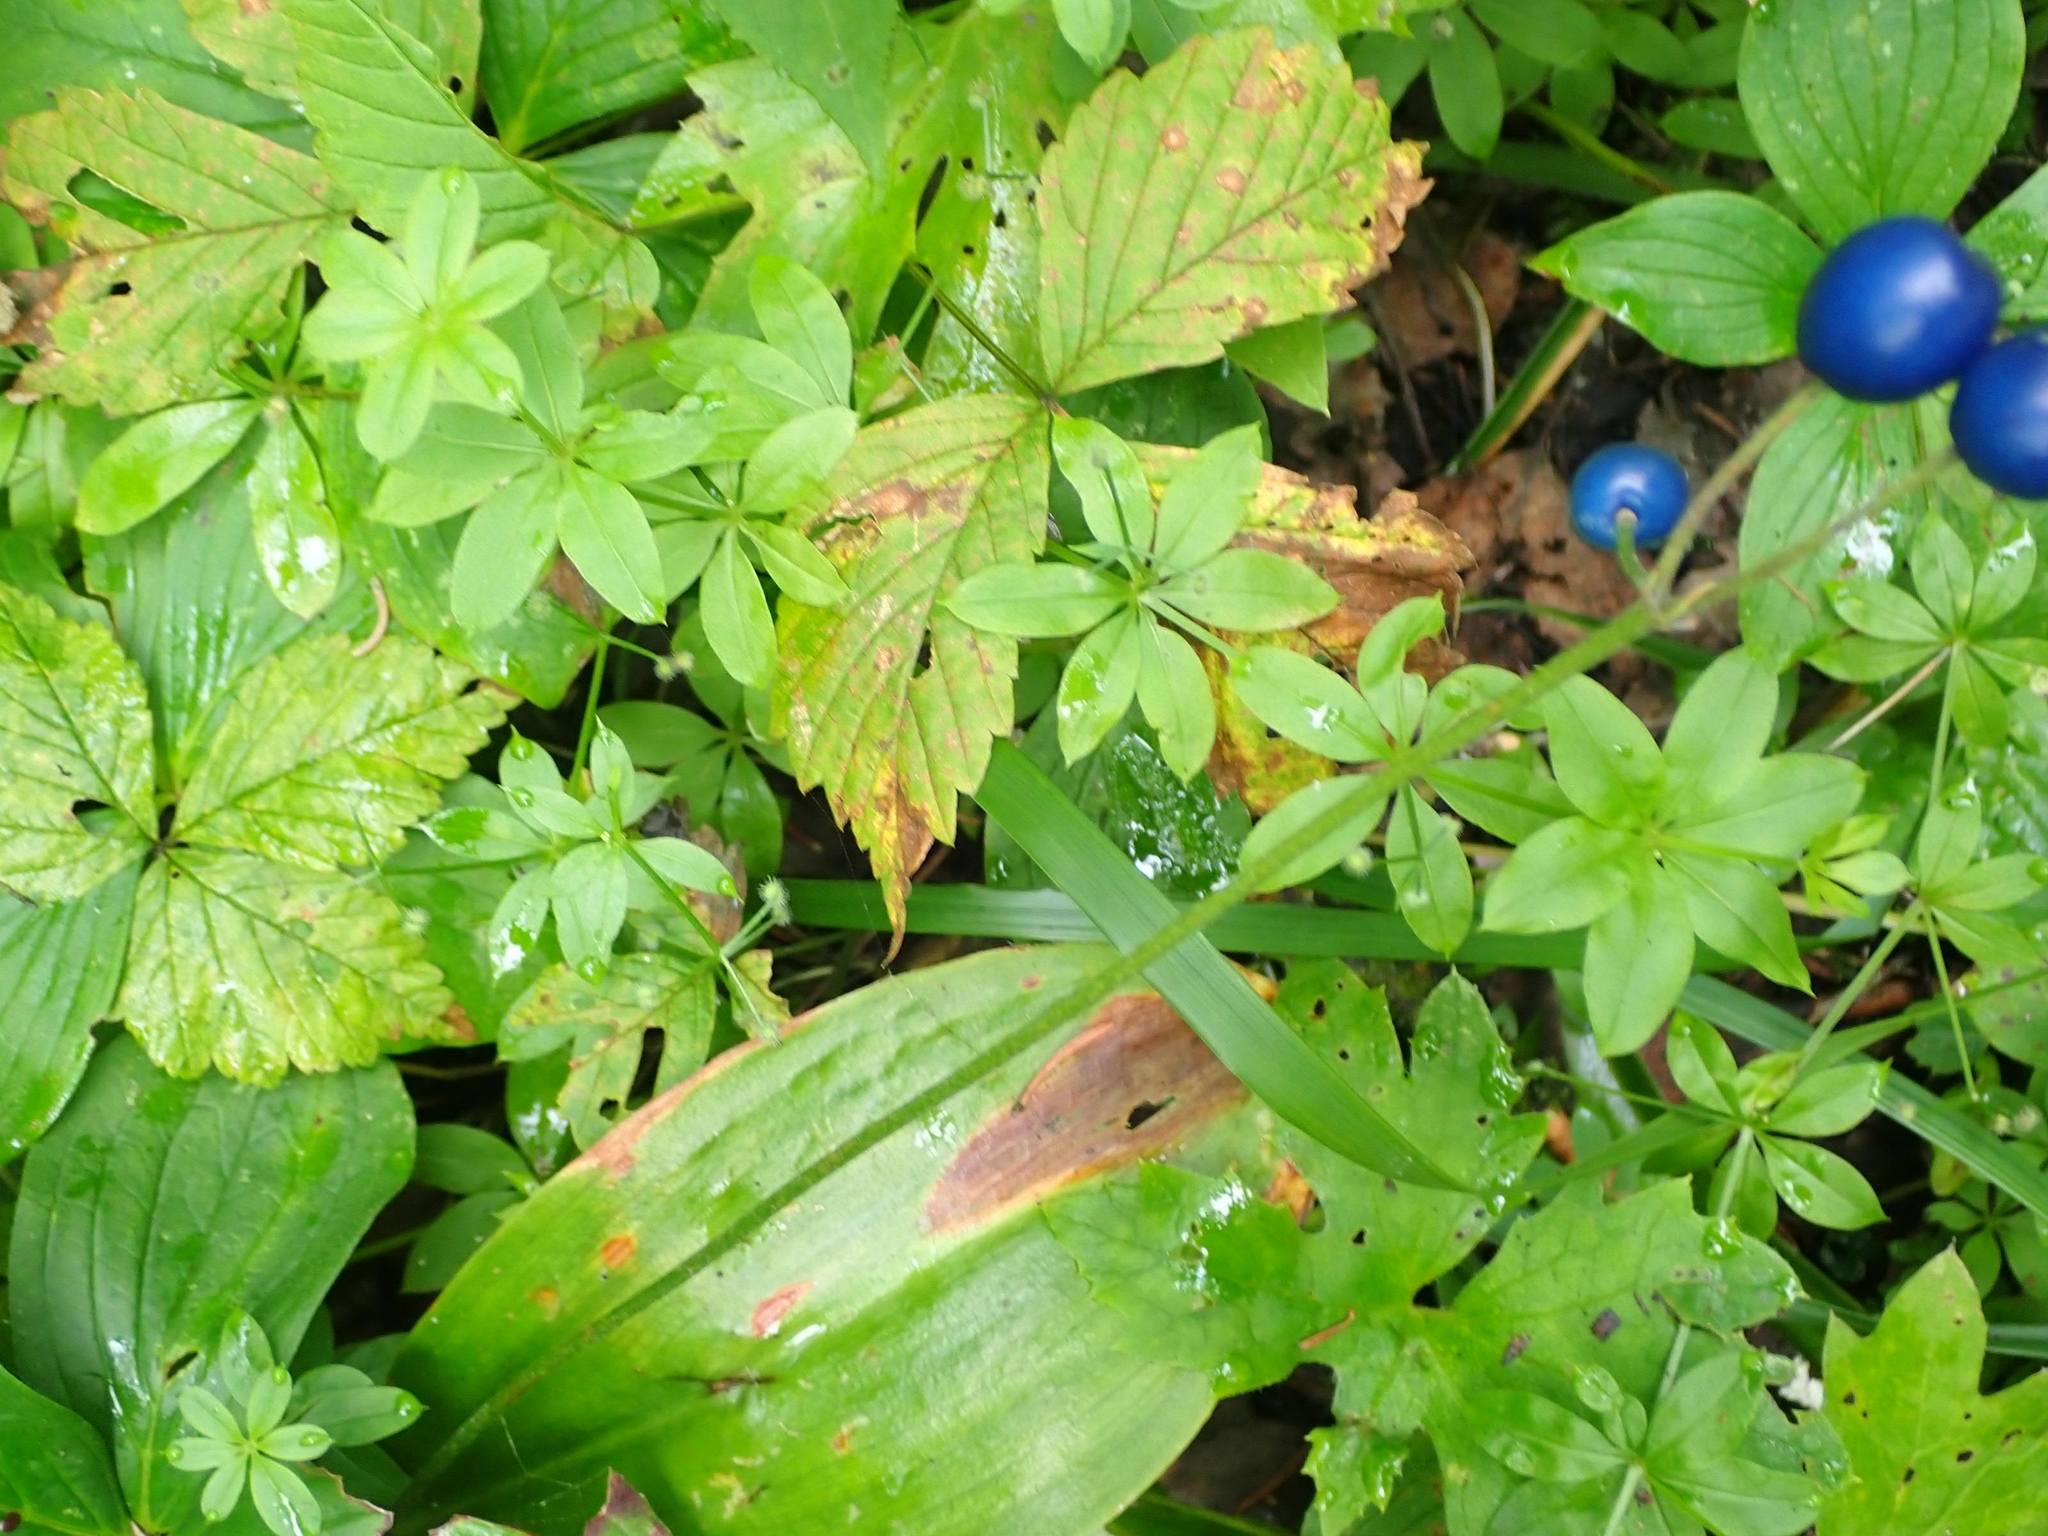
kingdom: Plantae
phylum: Tracheophyta
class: Magnoliopsida
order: Gentianales
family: Rubiaceae
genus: Galium
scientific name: Galium triflorum
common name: Fragrant bedstraw
